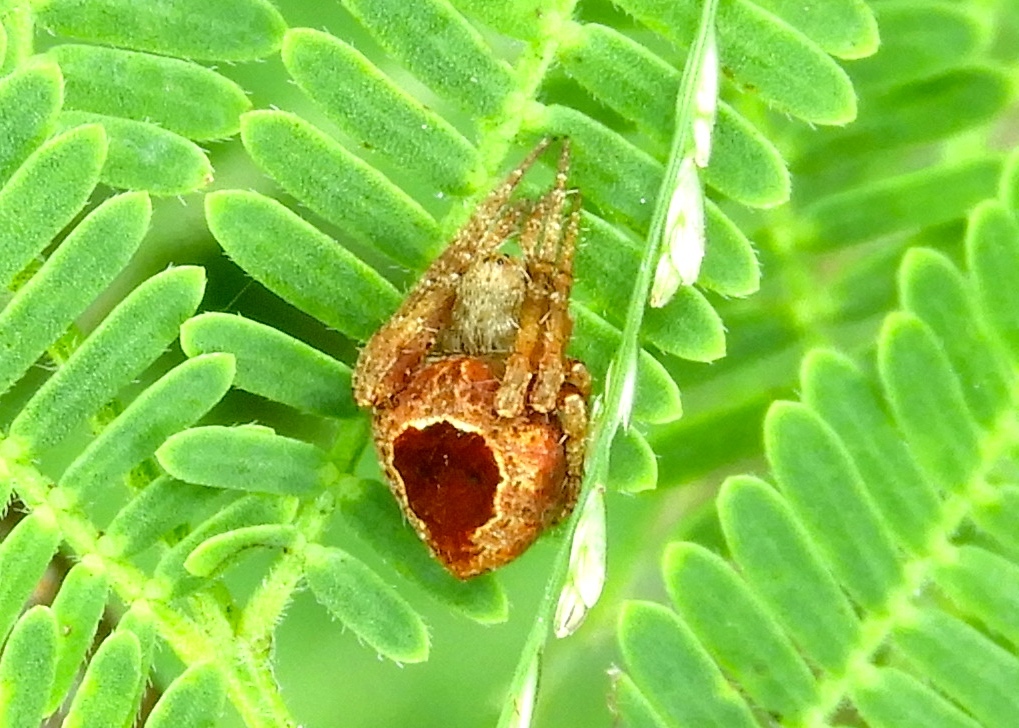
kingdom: Animalia
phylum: Arthropoda
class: Arachnida
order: Araneae
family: Araneidae
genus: Eriophora
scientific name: Eriophora
